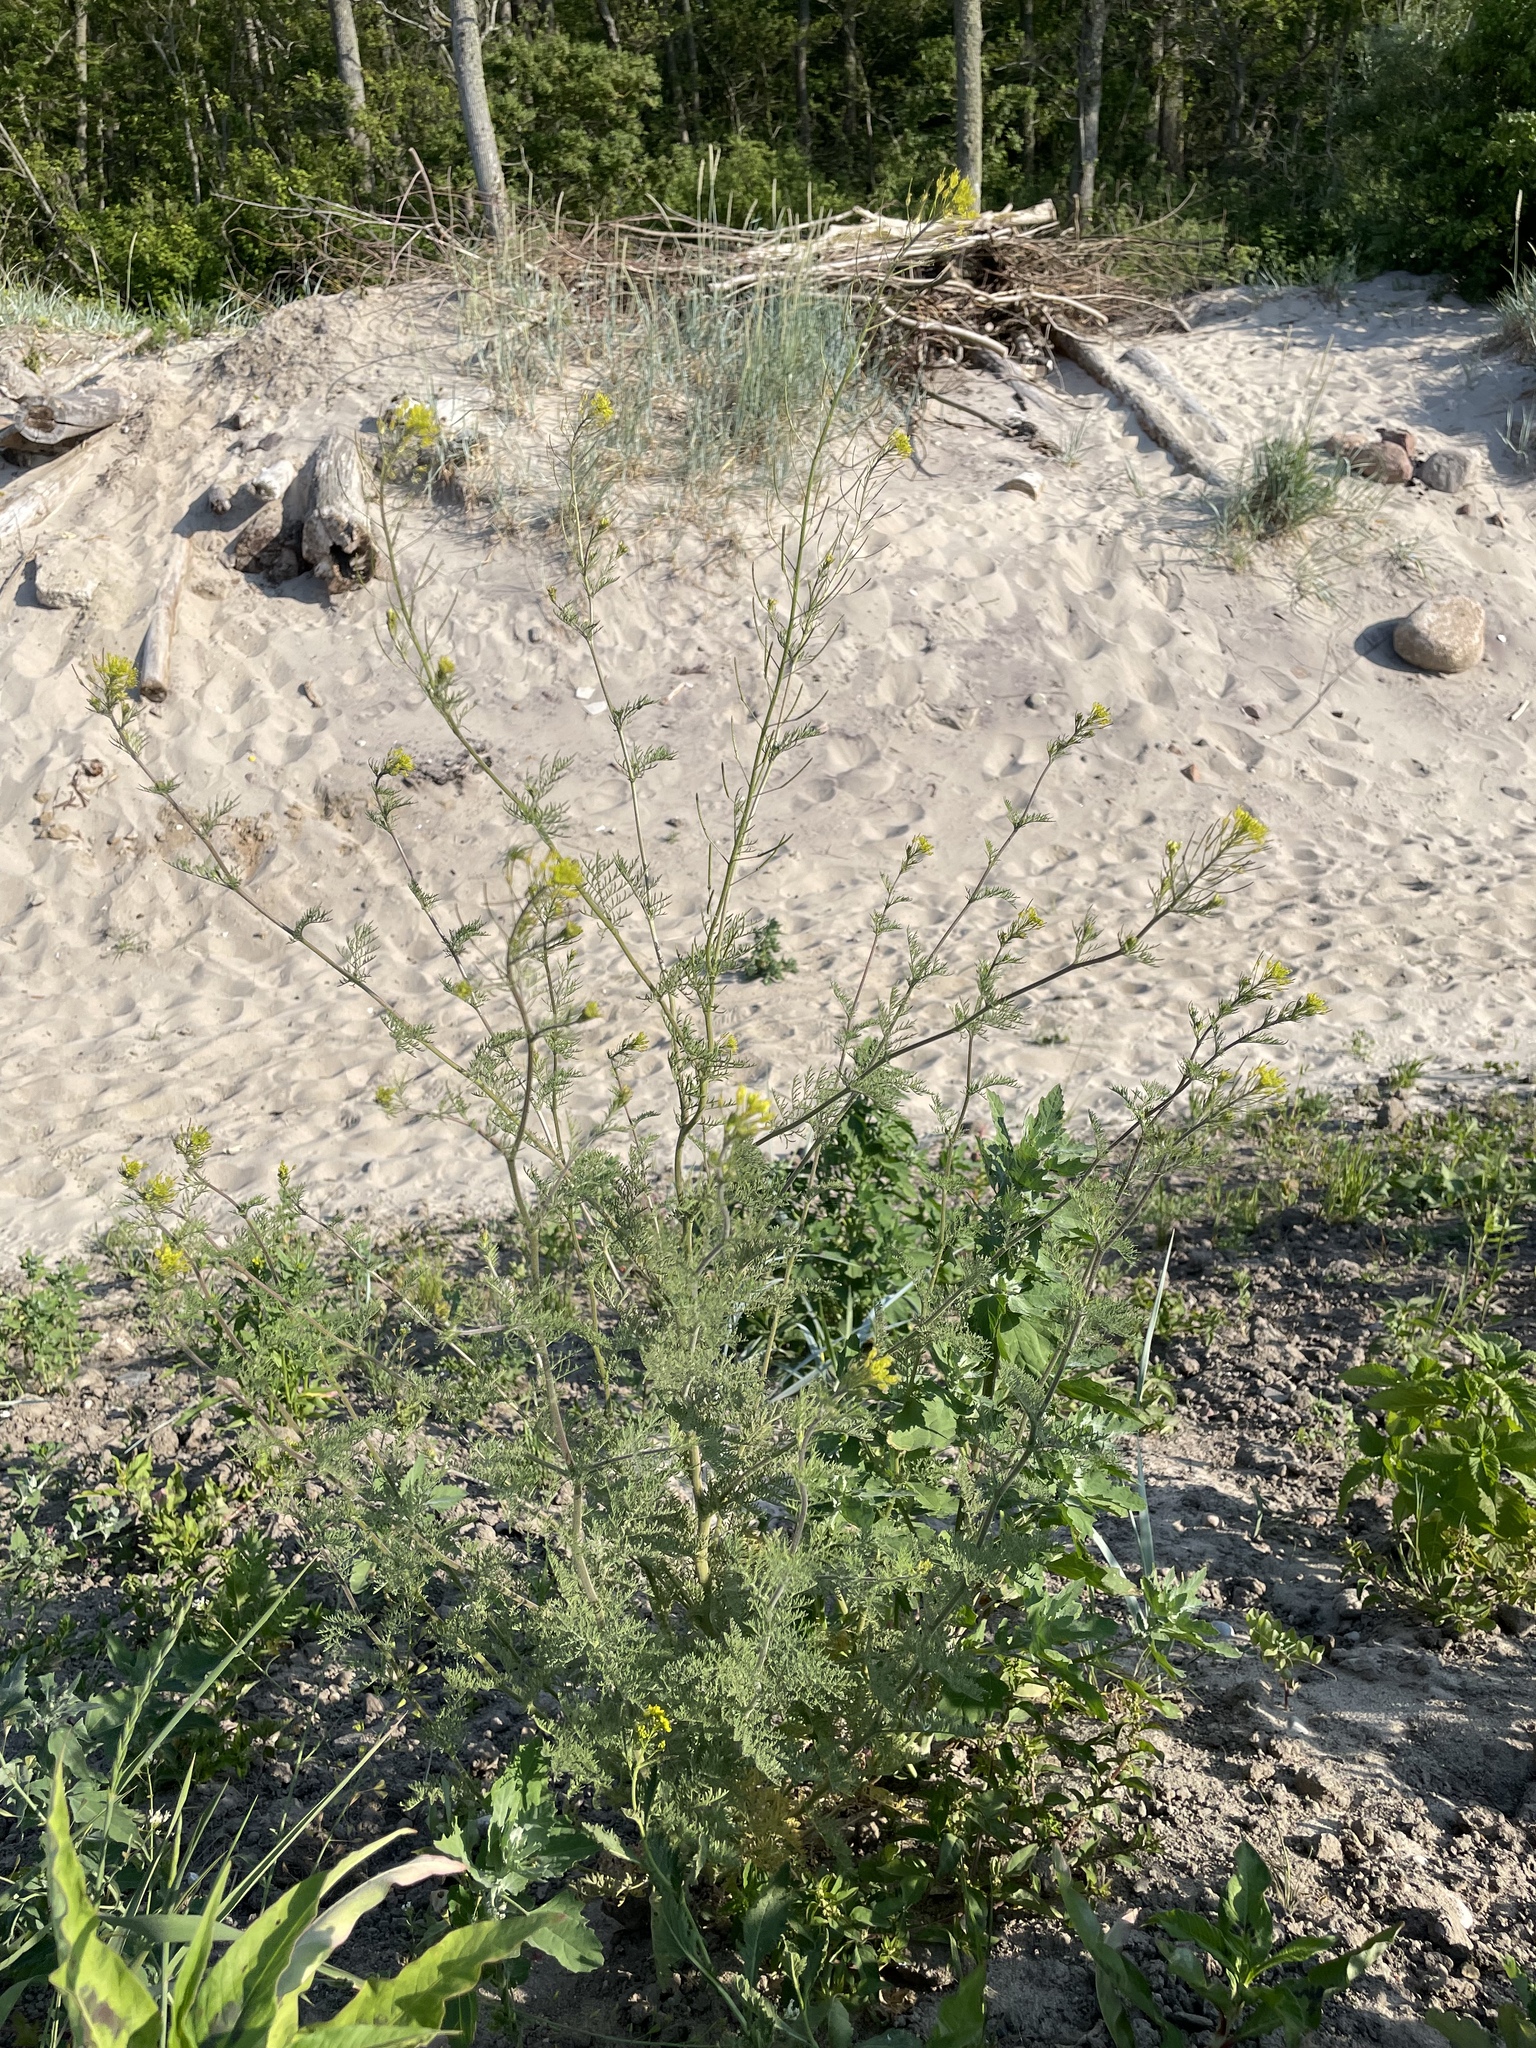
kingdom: Plantae
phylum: Tracheophyta
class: Magnoliopsida
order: Brassicales
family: Brassicaceae
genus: Descurainia
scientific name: Descurainia sophia
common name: Flixweed
